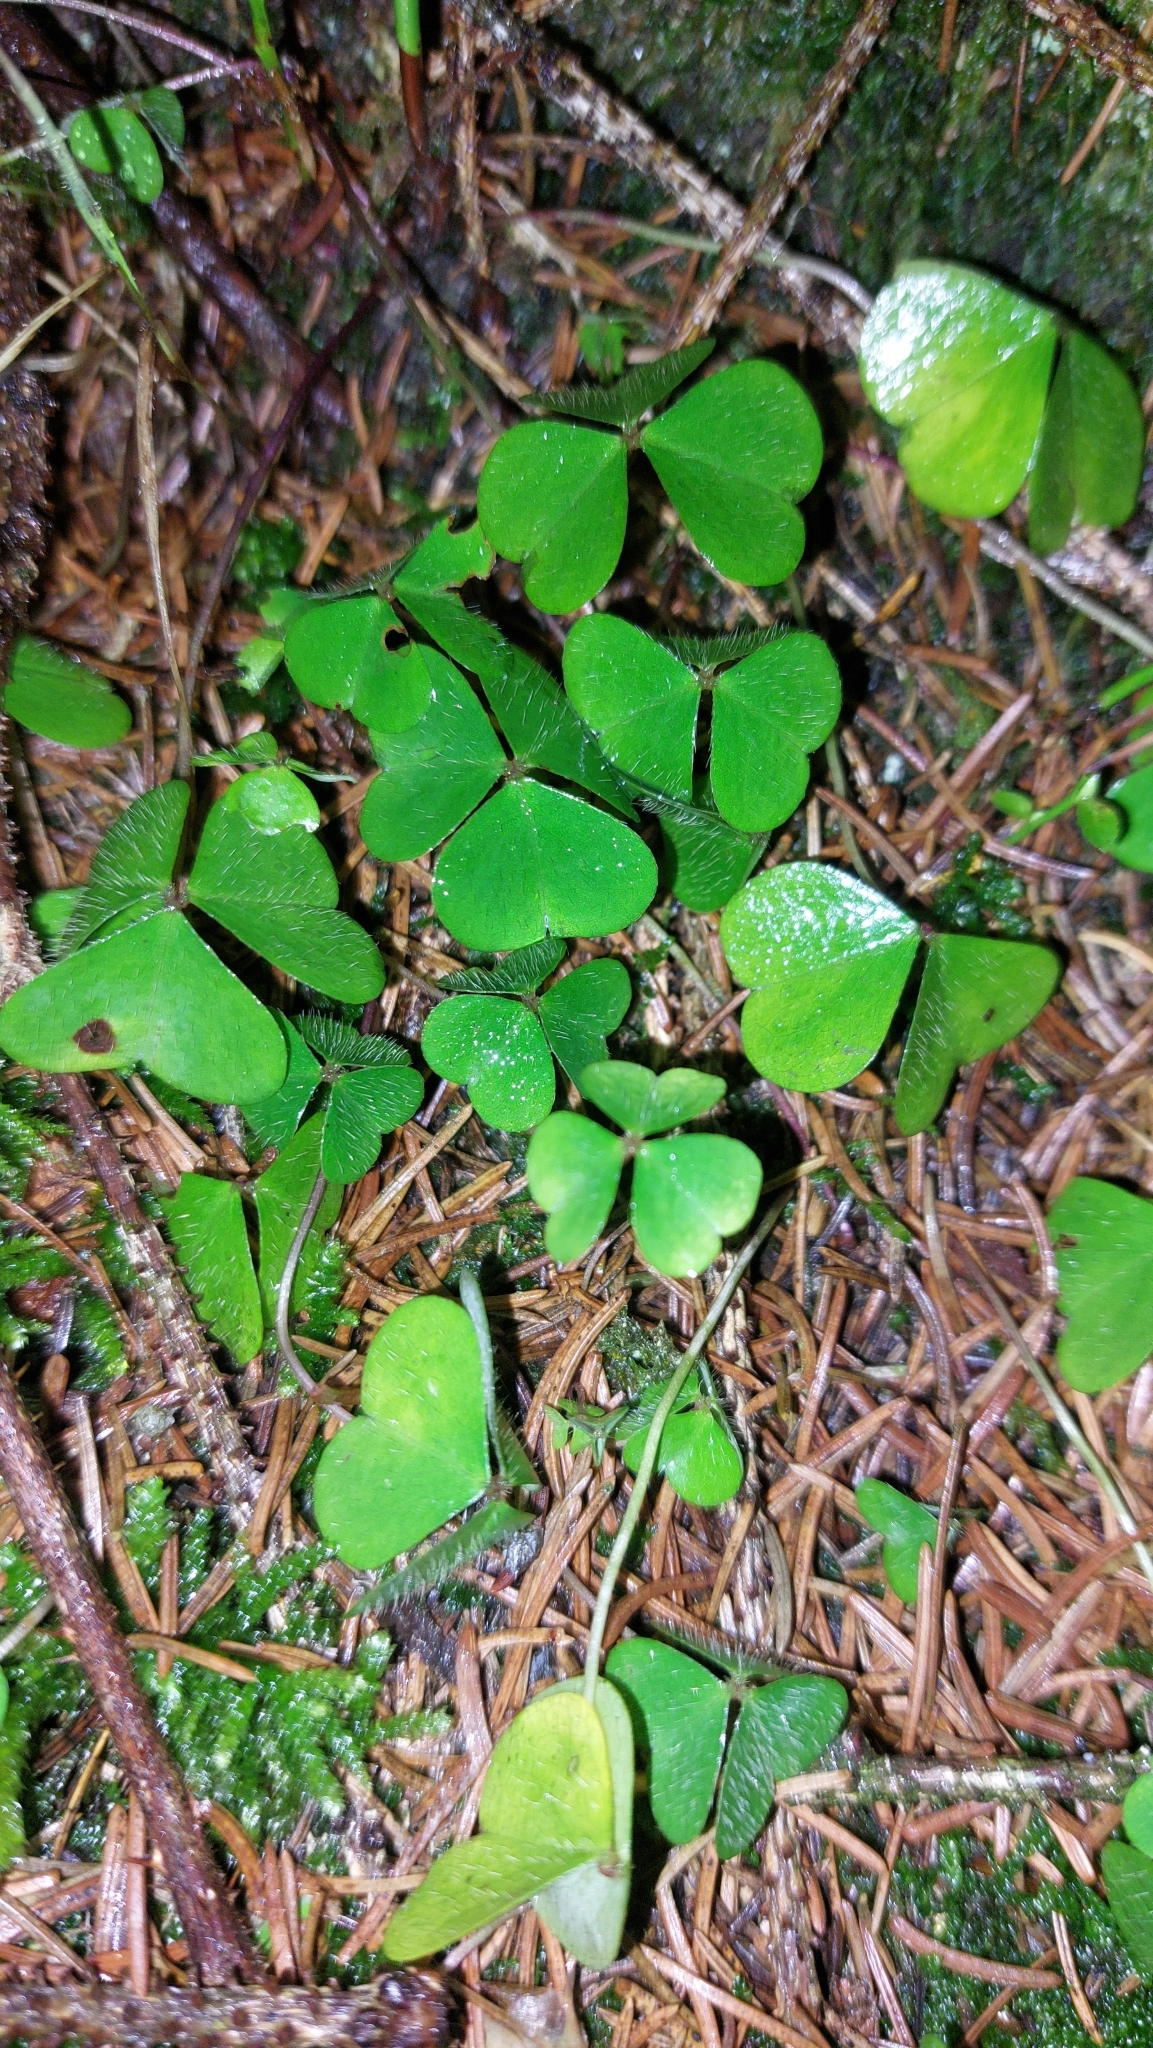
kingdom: Plantae
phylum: Tracheophyta
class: Magnoliopsida
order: Oxalidales
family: Oxalidaceae
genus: Oxalis
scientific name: Oxalis acetosella
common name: Wood-sorrel
